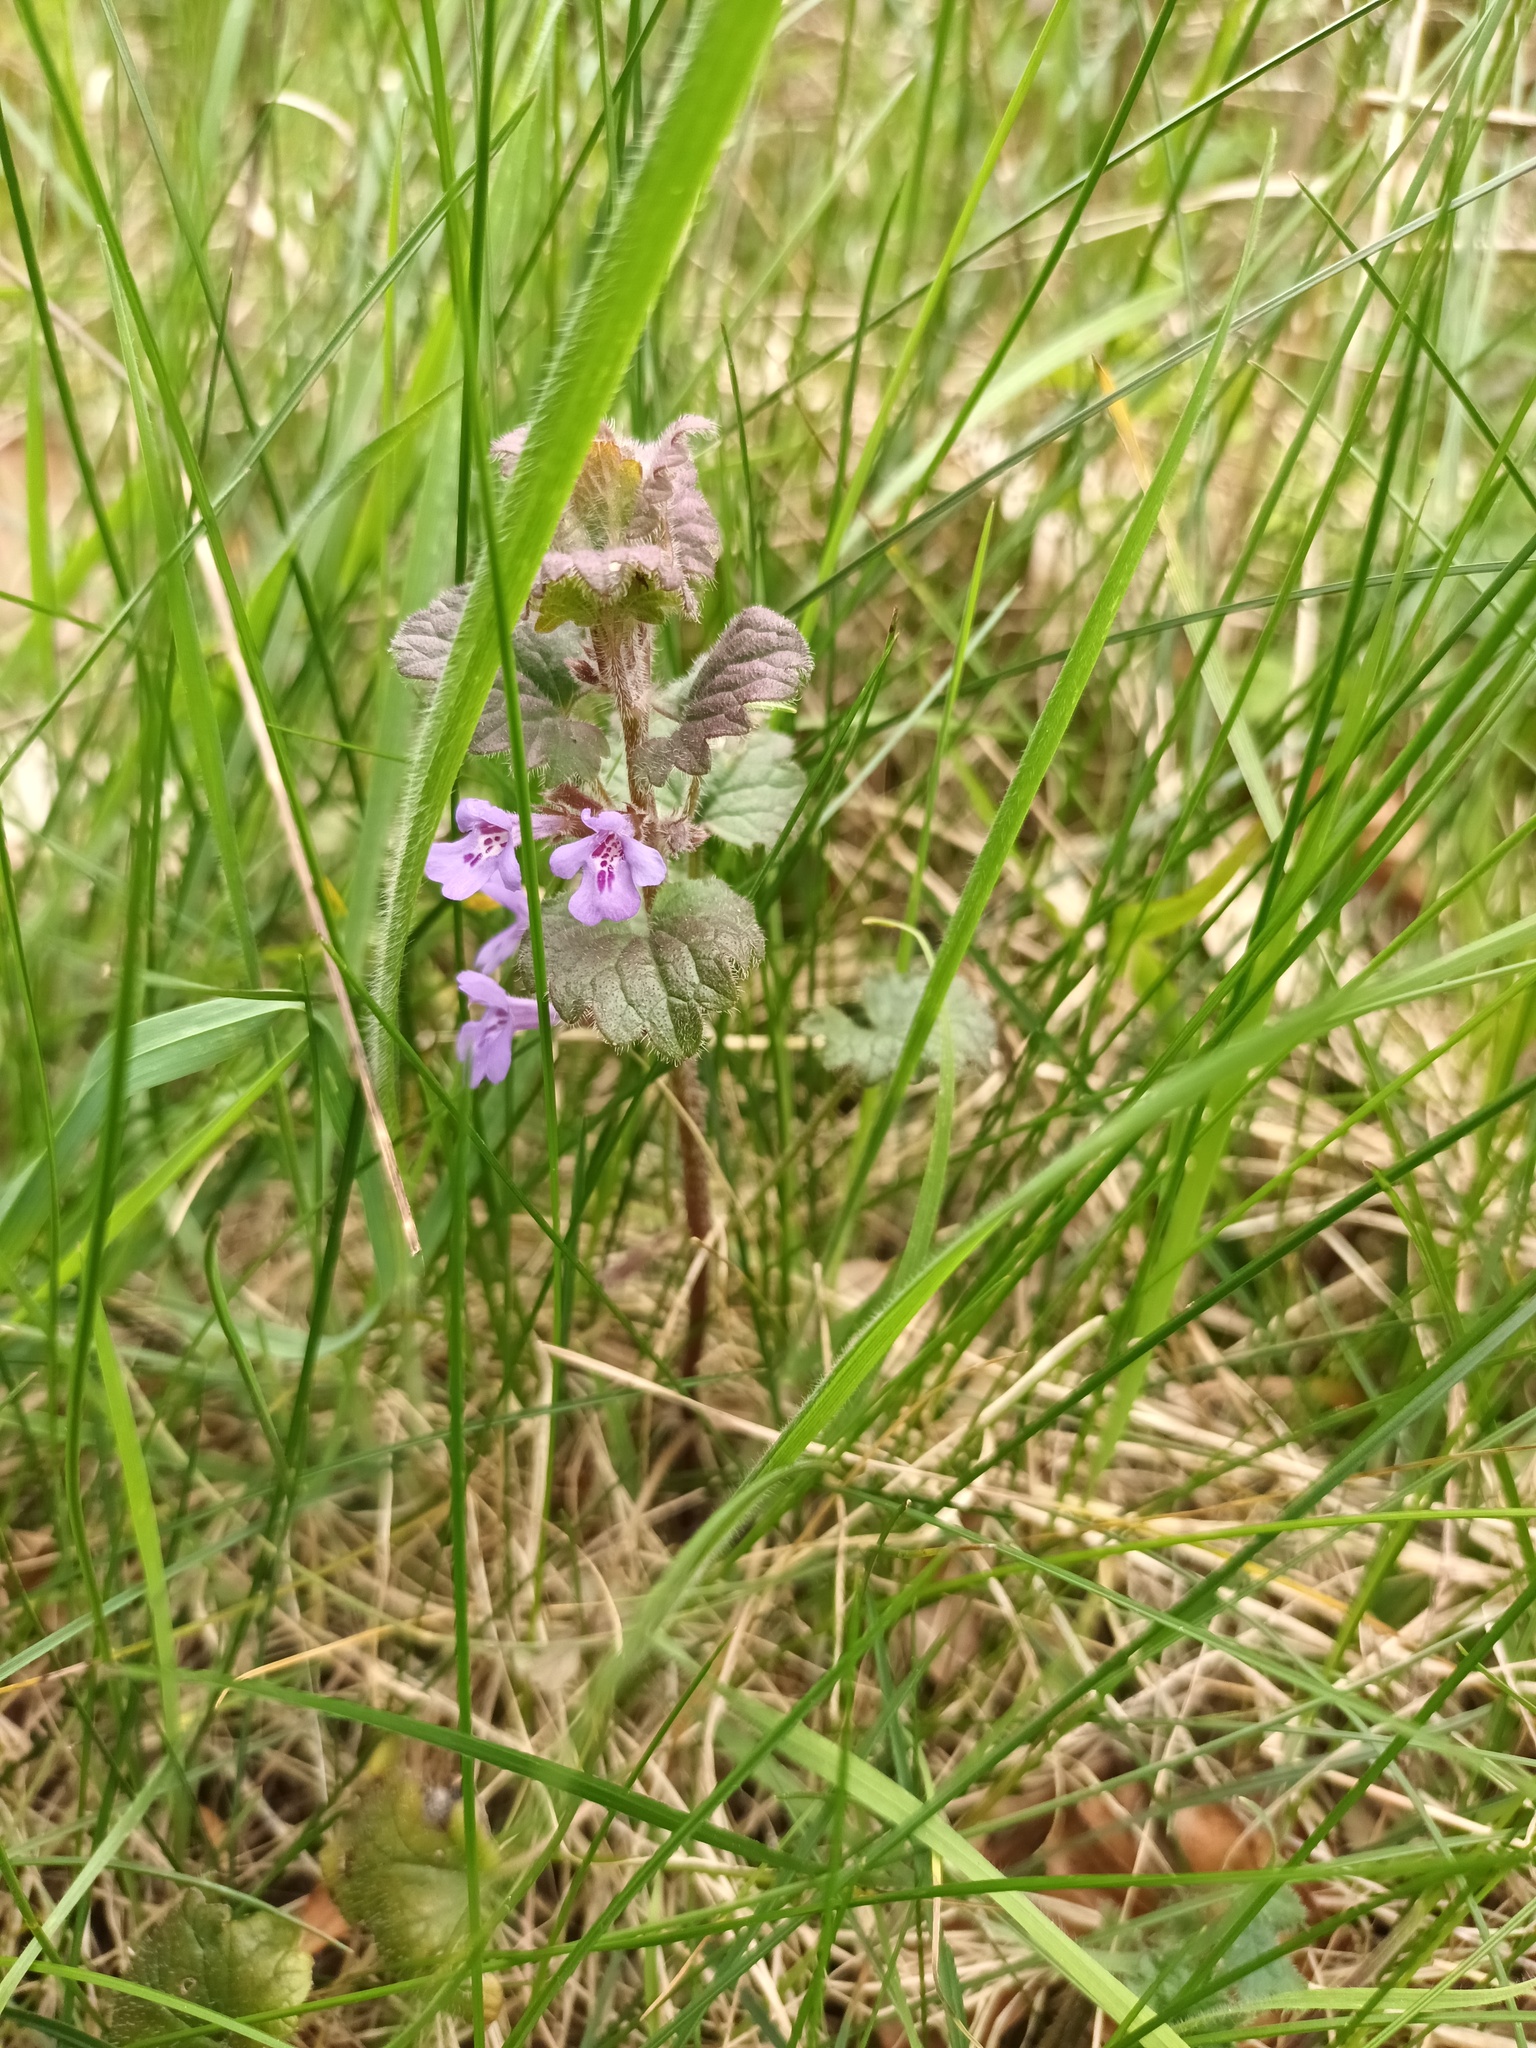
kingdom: Plantae
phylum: Tracheophyta
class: Magnoliopsida
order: Lamiales
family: Lamiaceae
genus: Glechoma
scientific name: Glechoma hederacea
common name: Ground ivy
